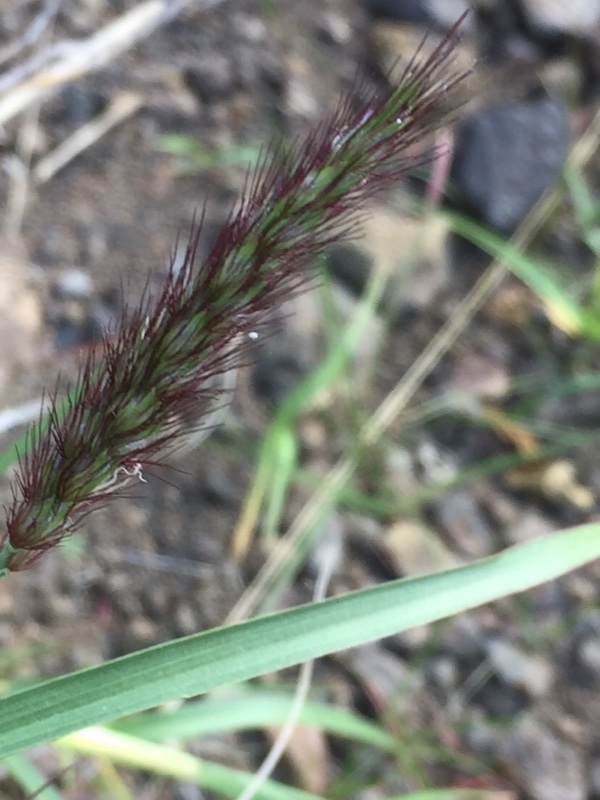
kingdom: Plantae
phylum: Tracheophyta
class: Liliopsida
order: Poales
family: Poaceae
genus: Cenchrus
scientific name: Cenchrus ciliaris
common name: Buffelgrass
